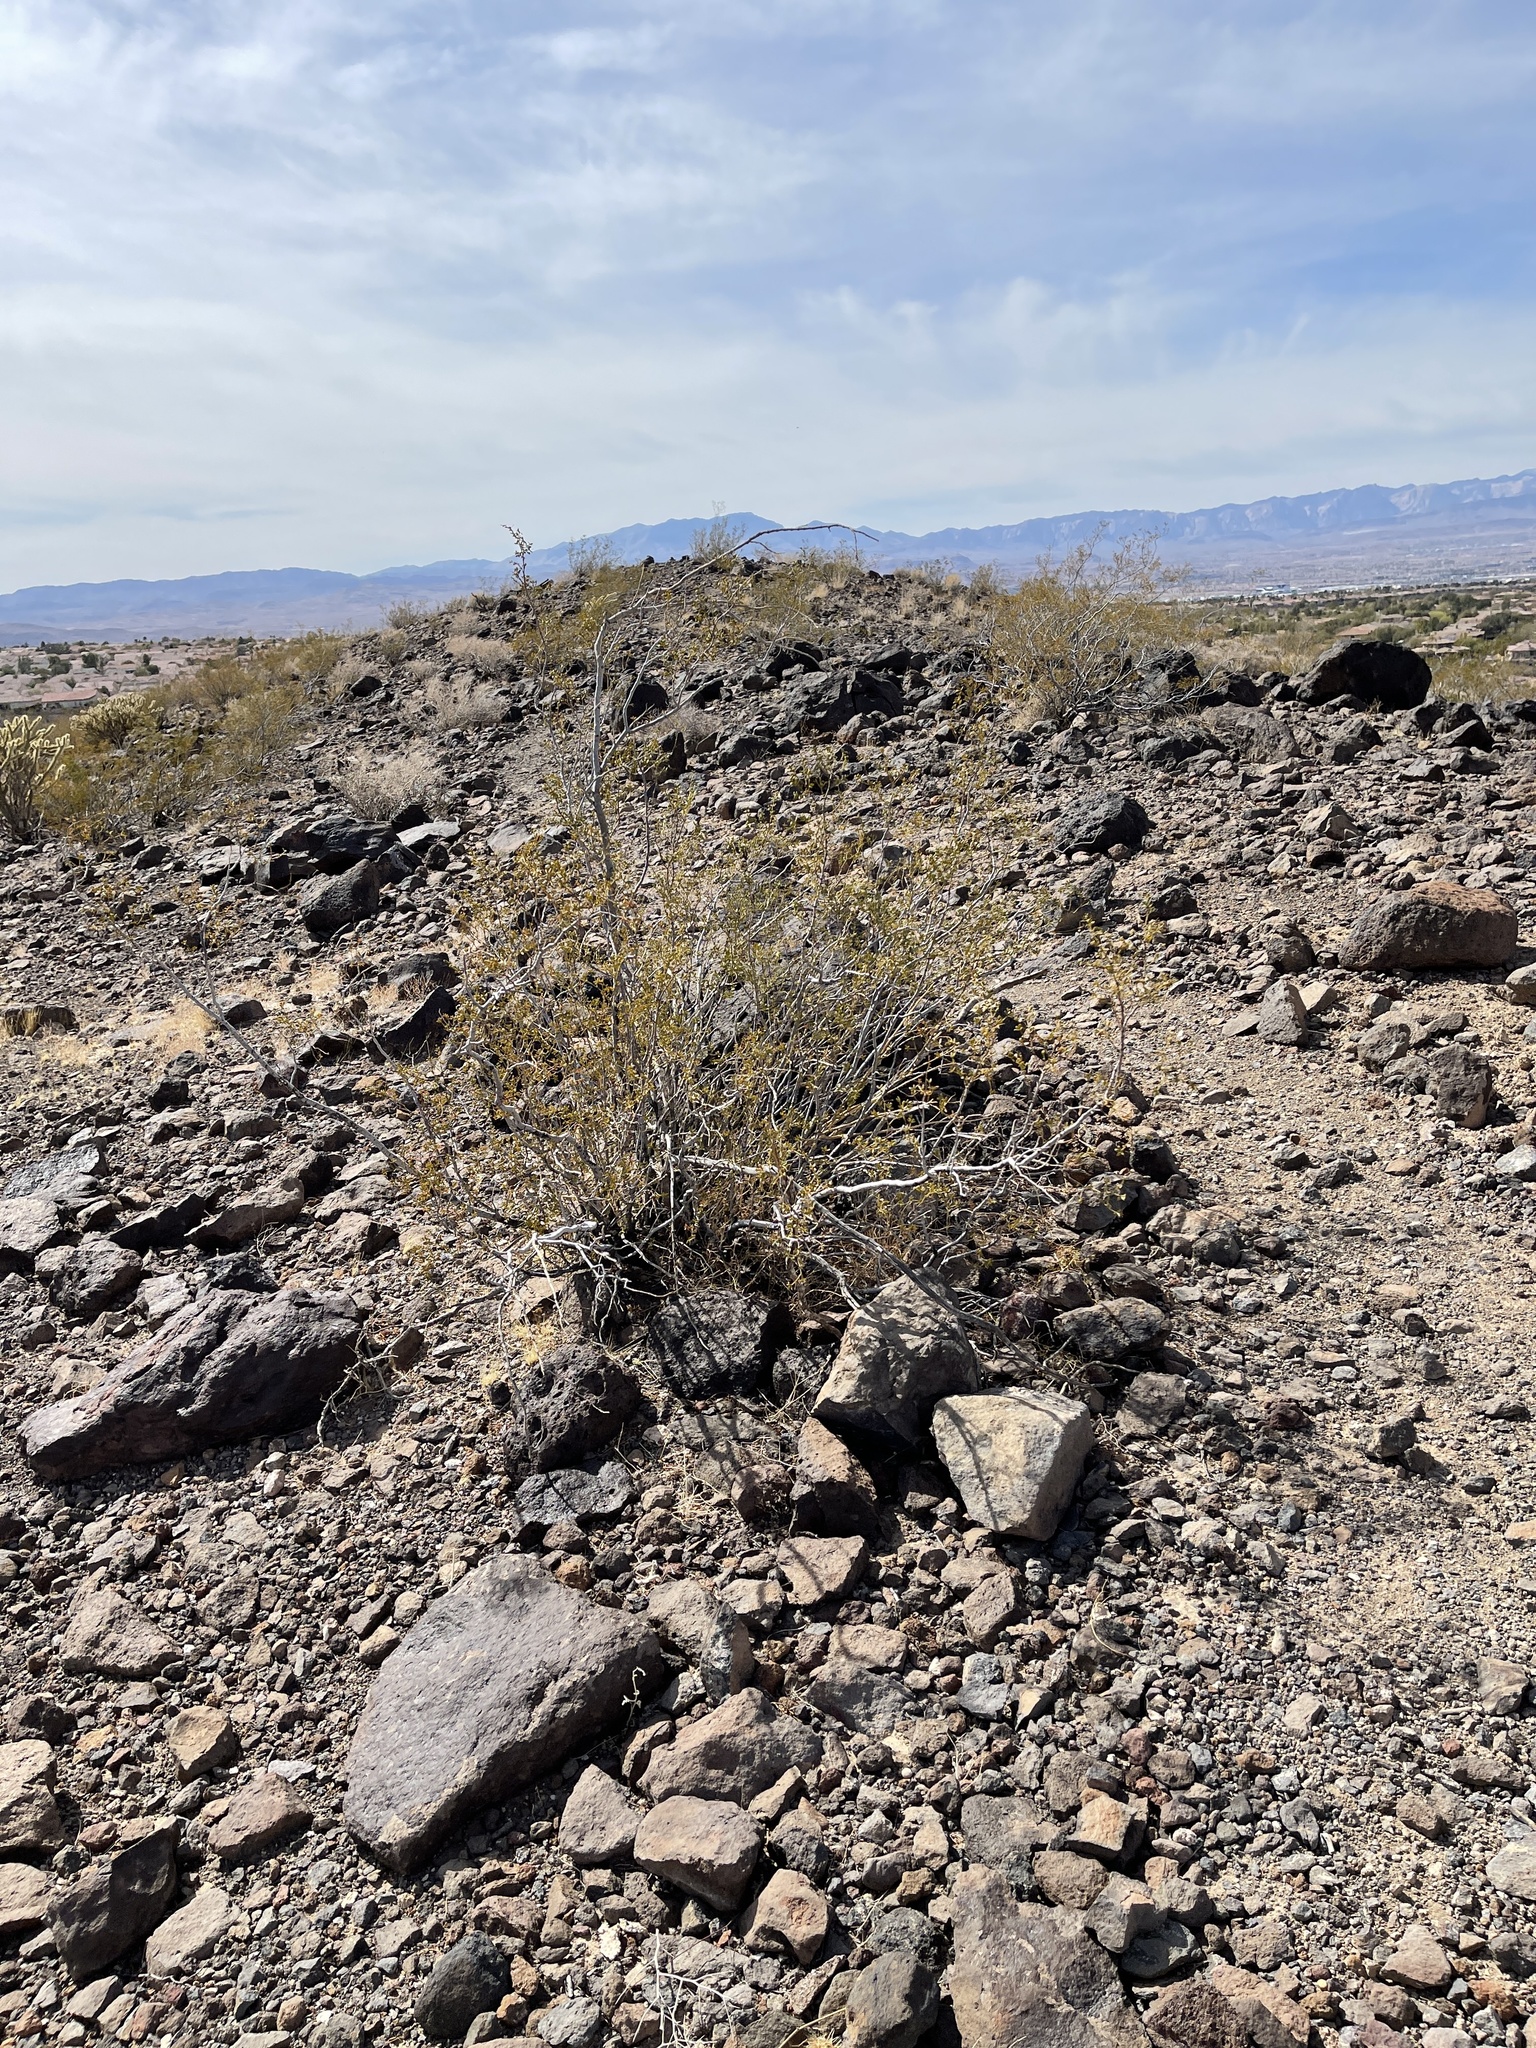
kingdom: Plantae
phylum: Tracheophyta
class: Magnoliopsida
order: Zygophyllales
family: Zygophyllaceae
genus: Larrea
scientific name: Larrea tridentata
